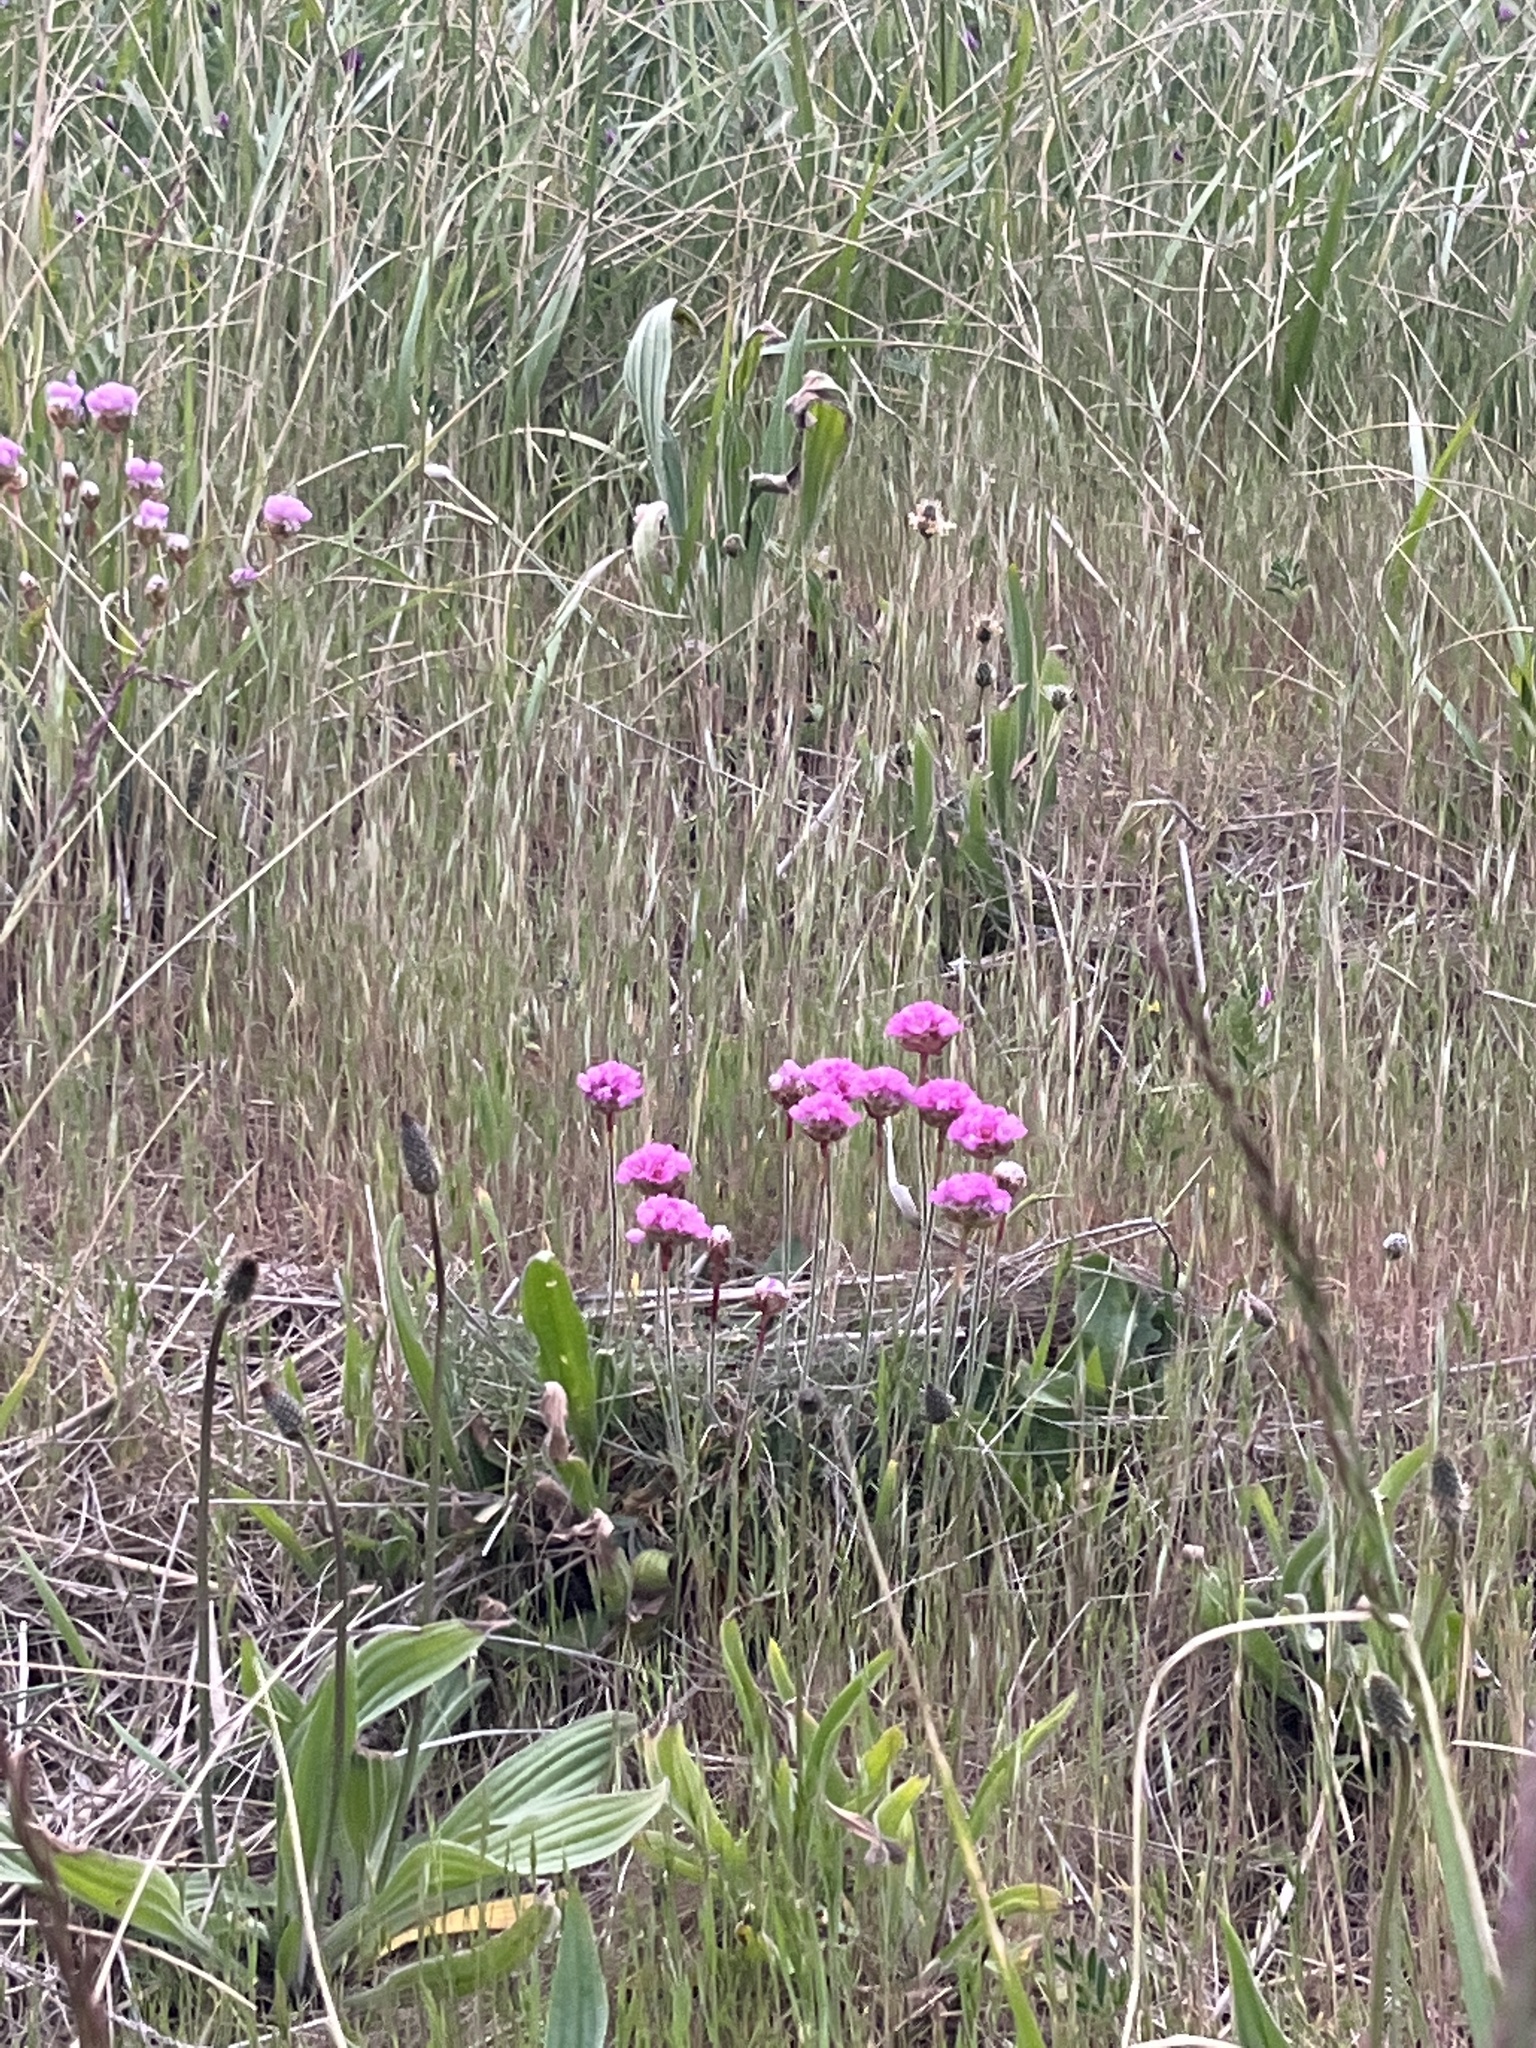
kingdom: Plantae
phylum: Tracheophyta
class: Magnoliopsida
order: Caryophyllales
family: Plumbaginaceae
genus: Armeria
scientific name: Armeria maritima
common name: Thrift
